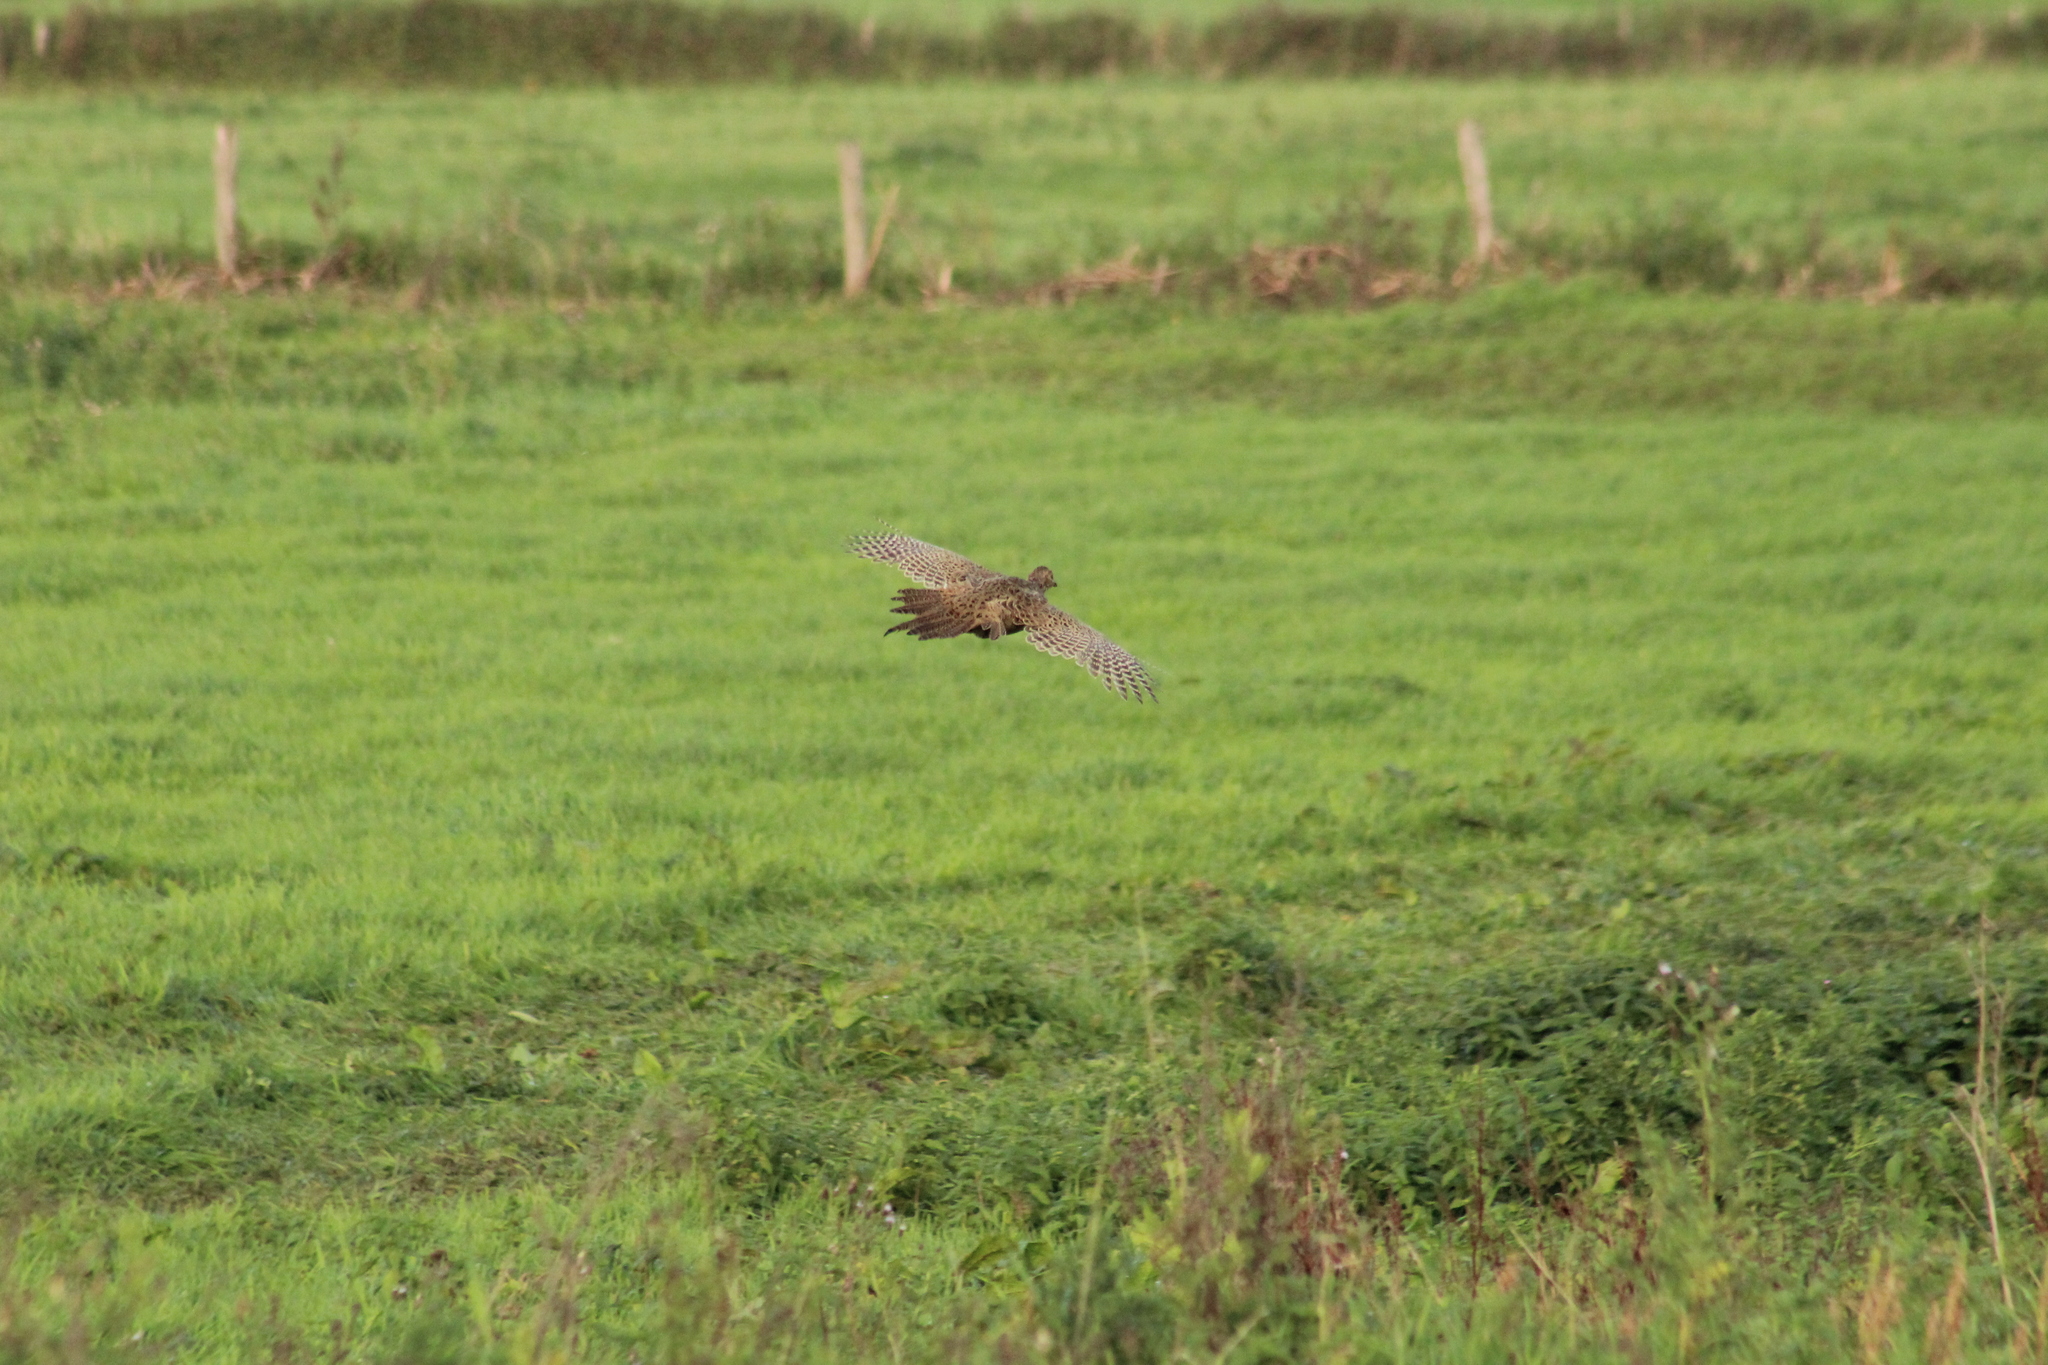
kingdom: Animalia
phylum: Chordata
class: Aves
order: Galliformes
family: Phasianidae
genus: Phasianus
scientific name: Phasianus colchicus
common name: Common pheasant
